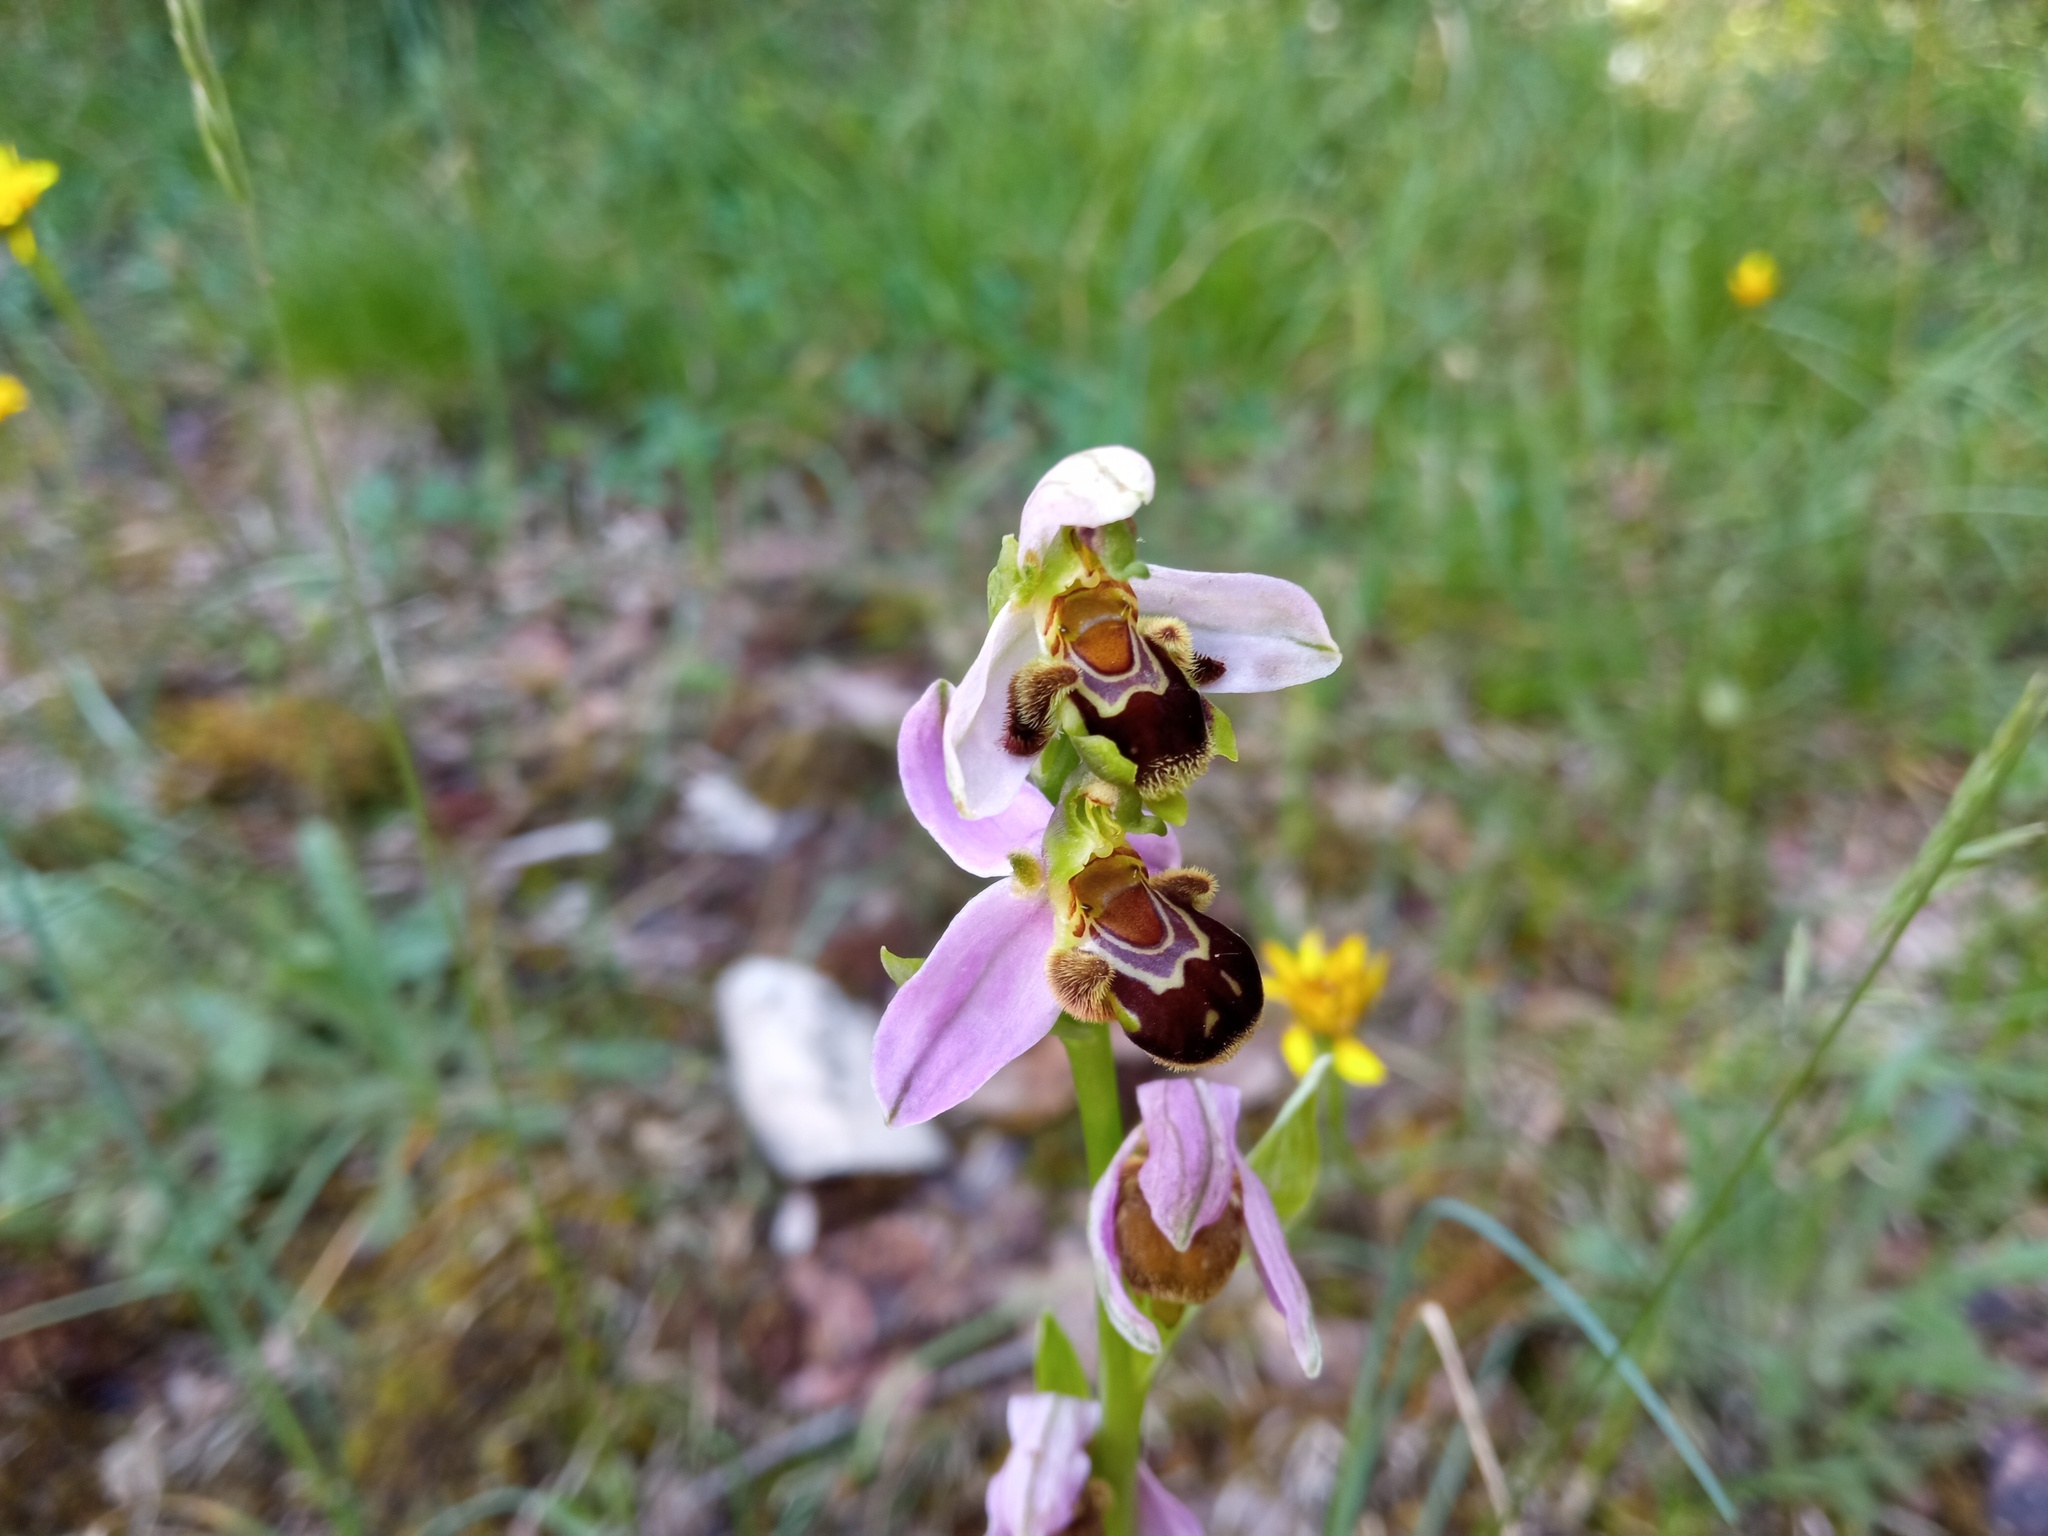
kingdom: Plantae
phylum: Tracheophyta
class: Liliopsida
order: Asparagales
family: Orchidaceae
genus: Ophrys
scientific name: Ophrys apifera
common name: Bee orchid
